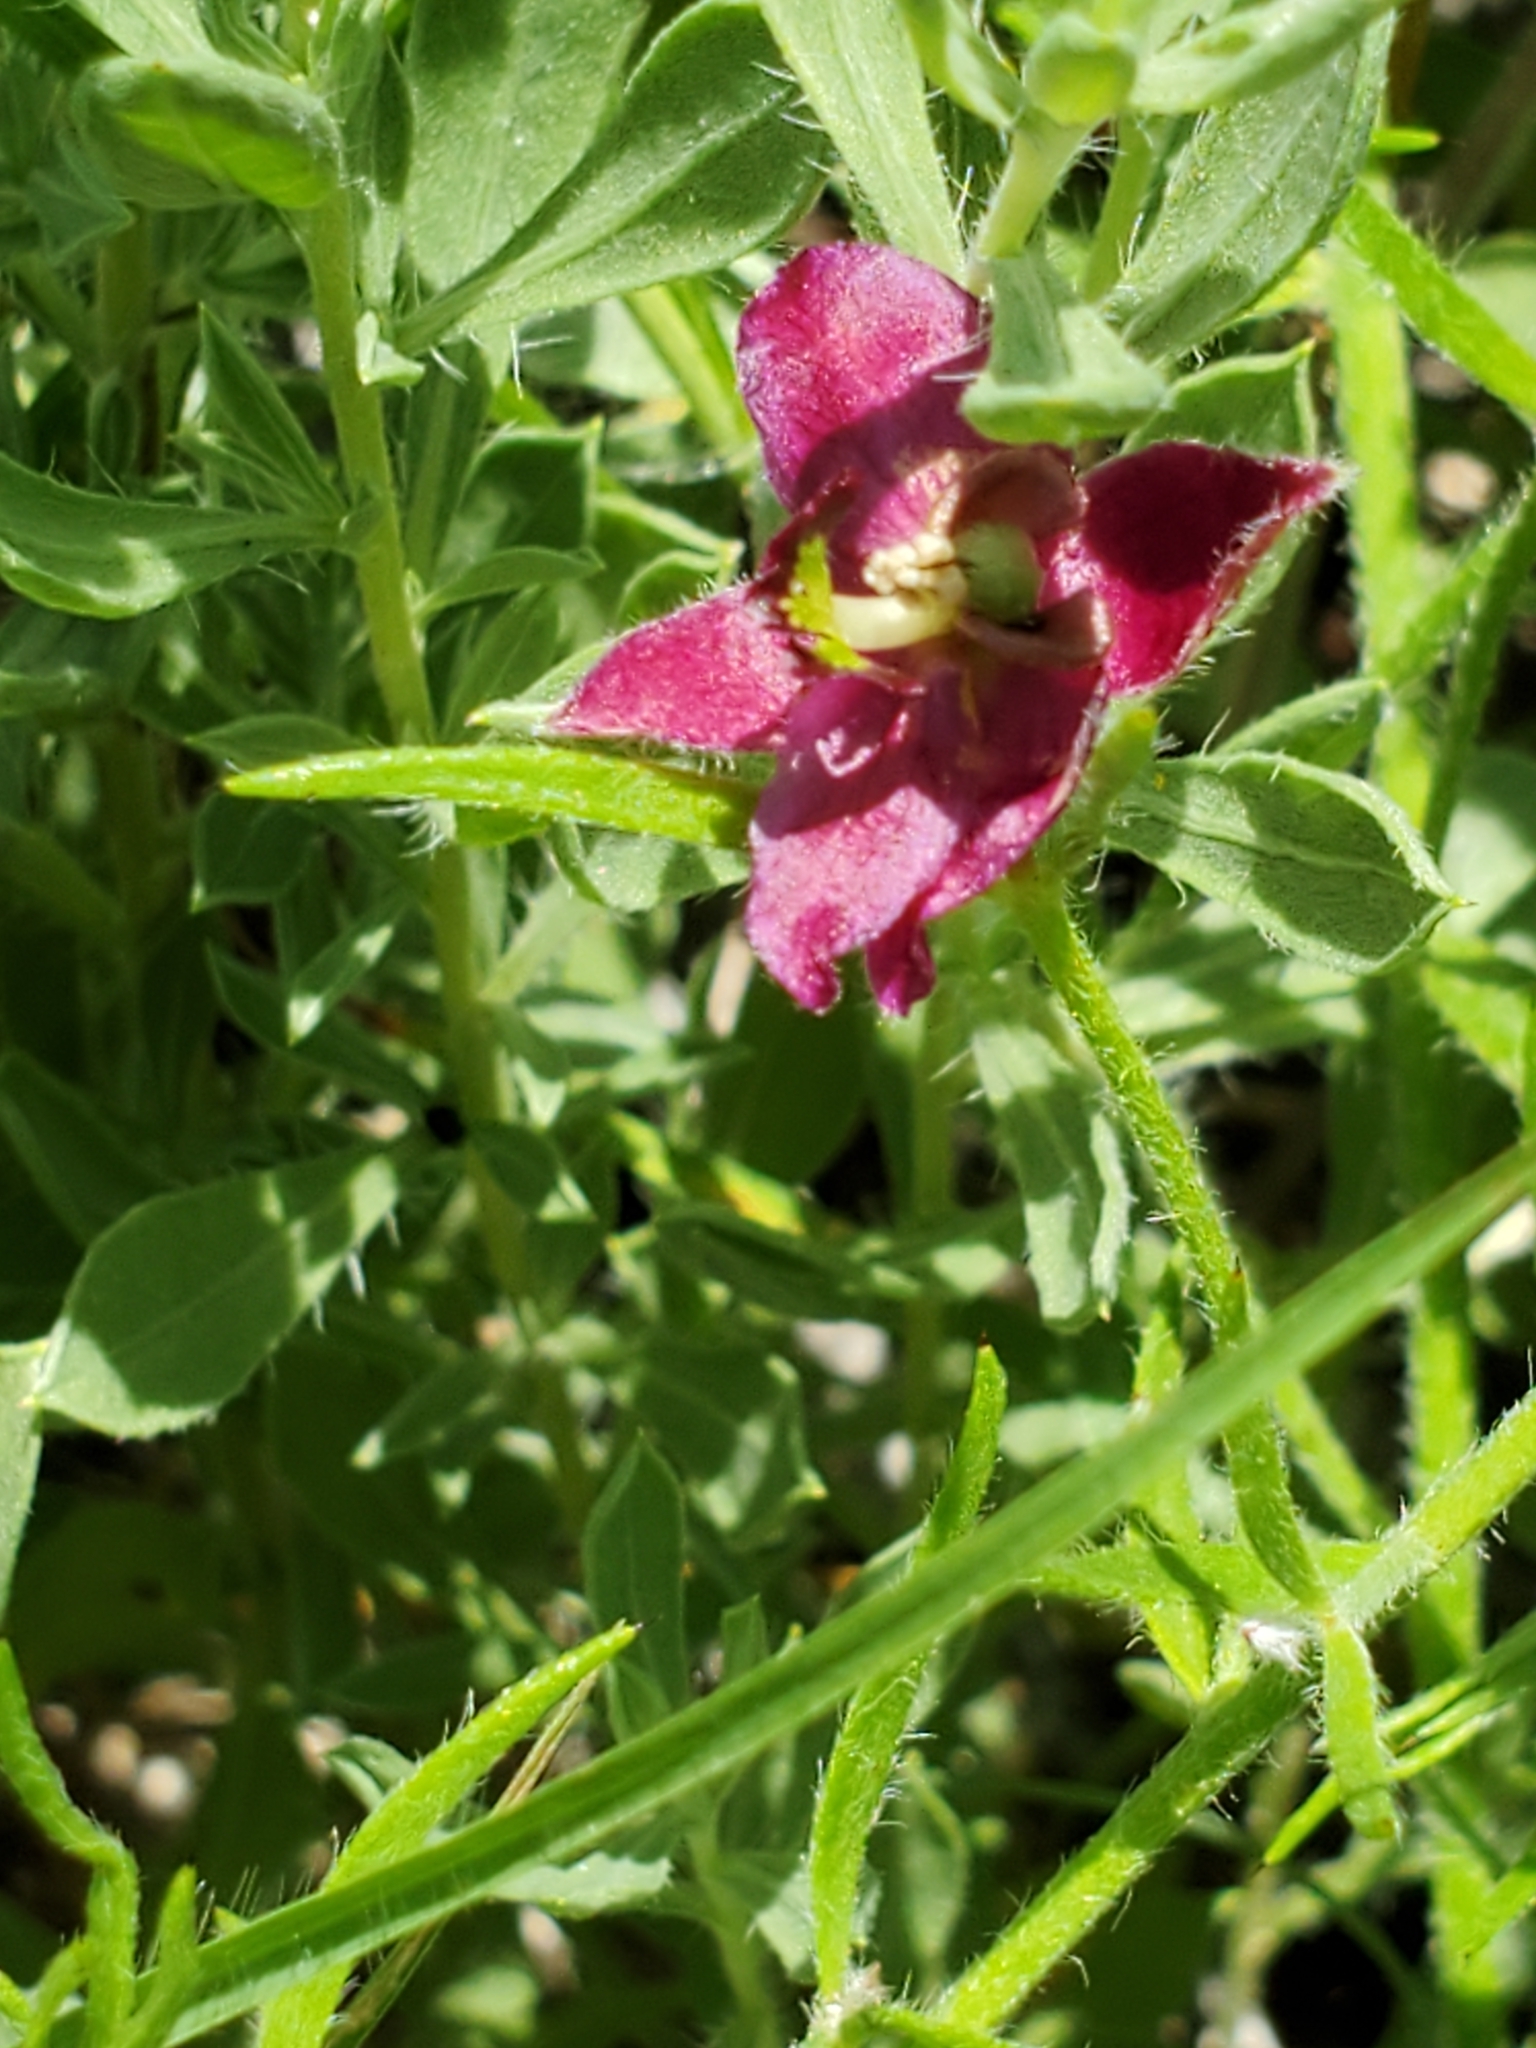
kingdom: Plantae
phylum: Tracheophyta
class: Magnoliopsida
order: Zygophyllales
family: Krameriaceae
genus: Krameria
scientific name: Krameria lanceolata
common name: Ratany
